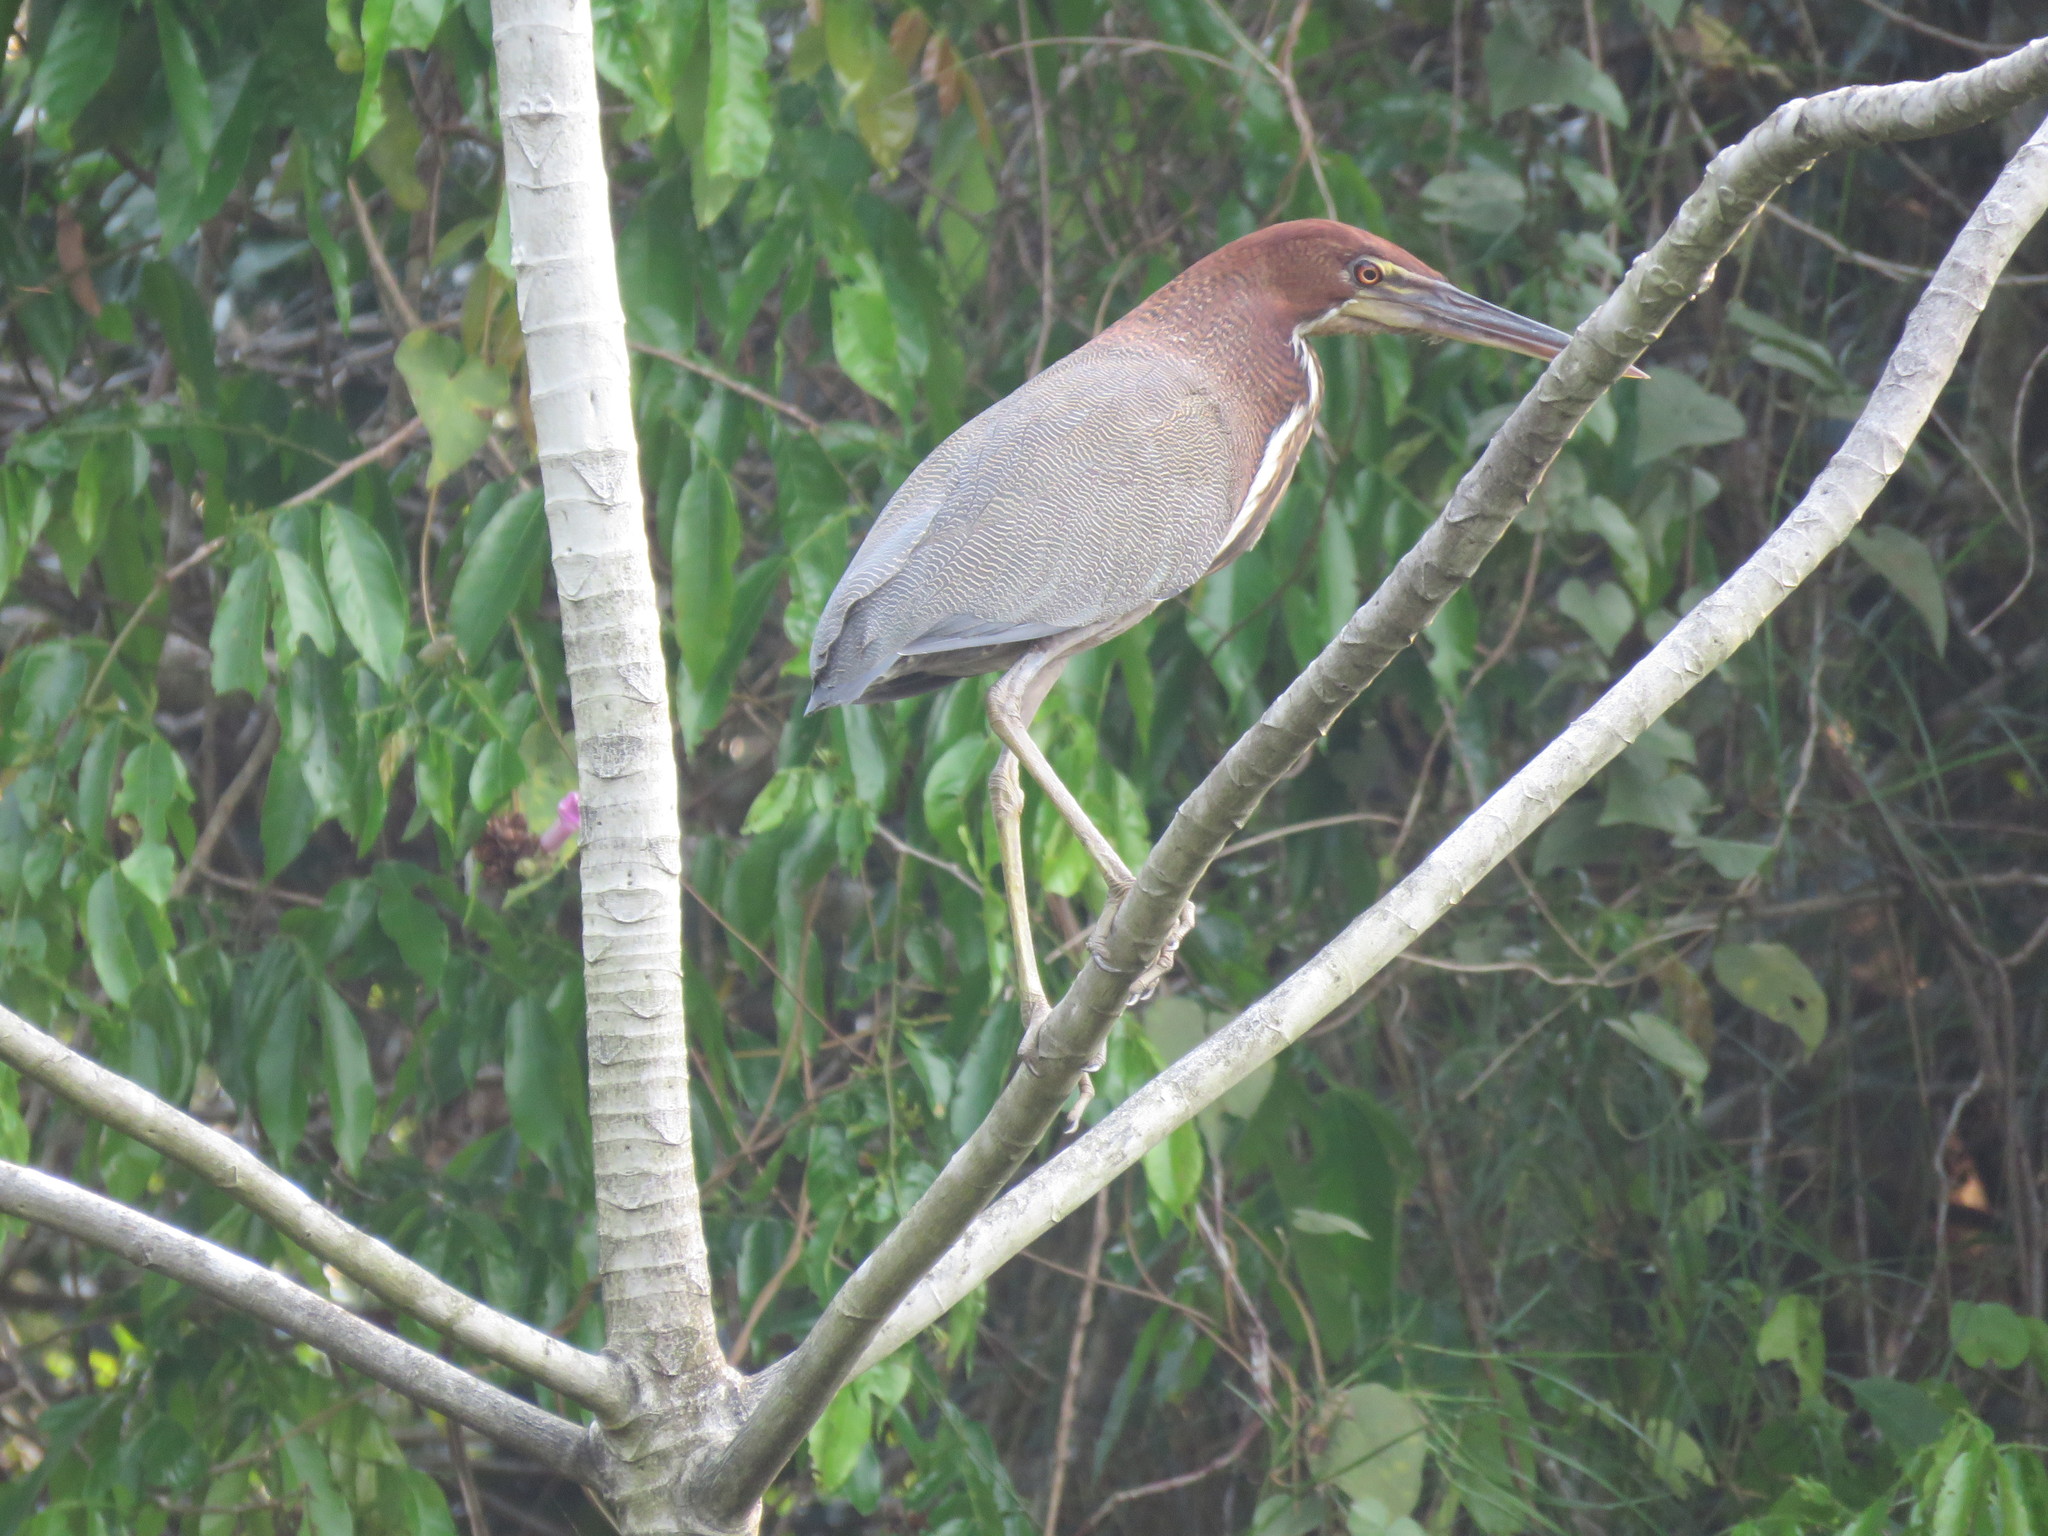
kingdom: Animalia
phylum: Chordata
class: Aves
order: Pelecaniformes
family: Ardeidae
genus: Tigrisoma
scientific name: Tigrisoma lineatum
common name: Rufescent tiger-heron
